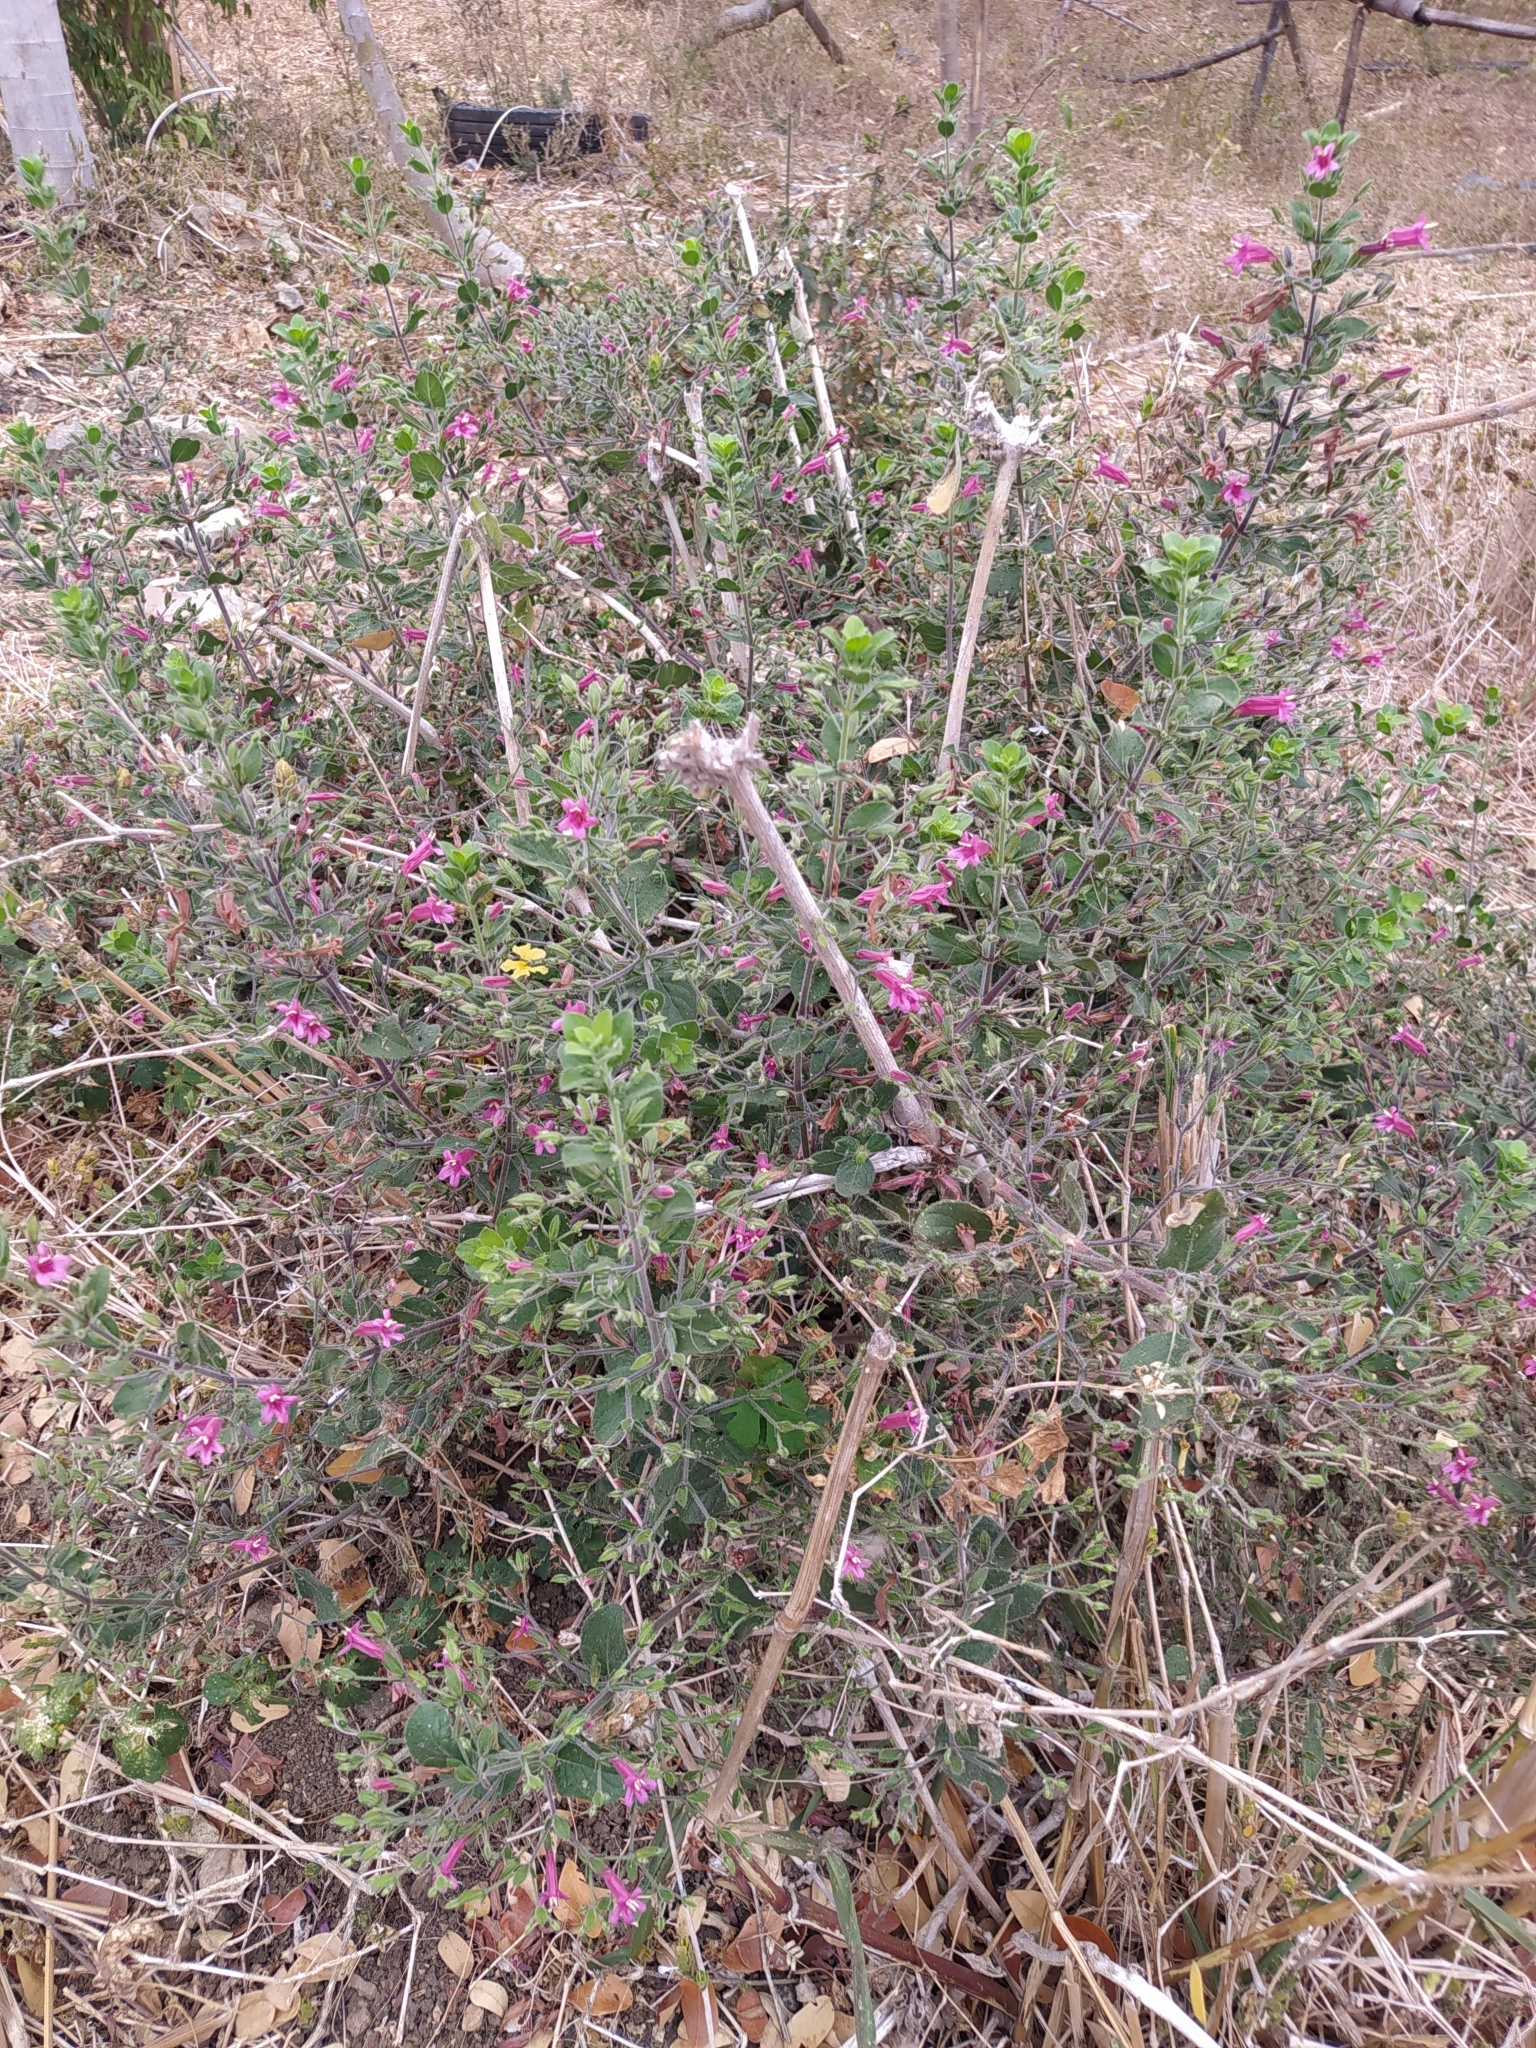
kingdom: Plantae
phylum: Tracheophyta
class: Magnoliopsida
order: Lamiales
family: Acanthaceae
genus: Ruellia
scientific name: Ruellia floribunda
